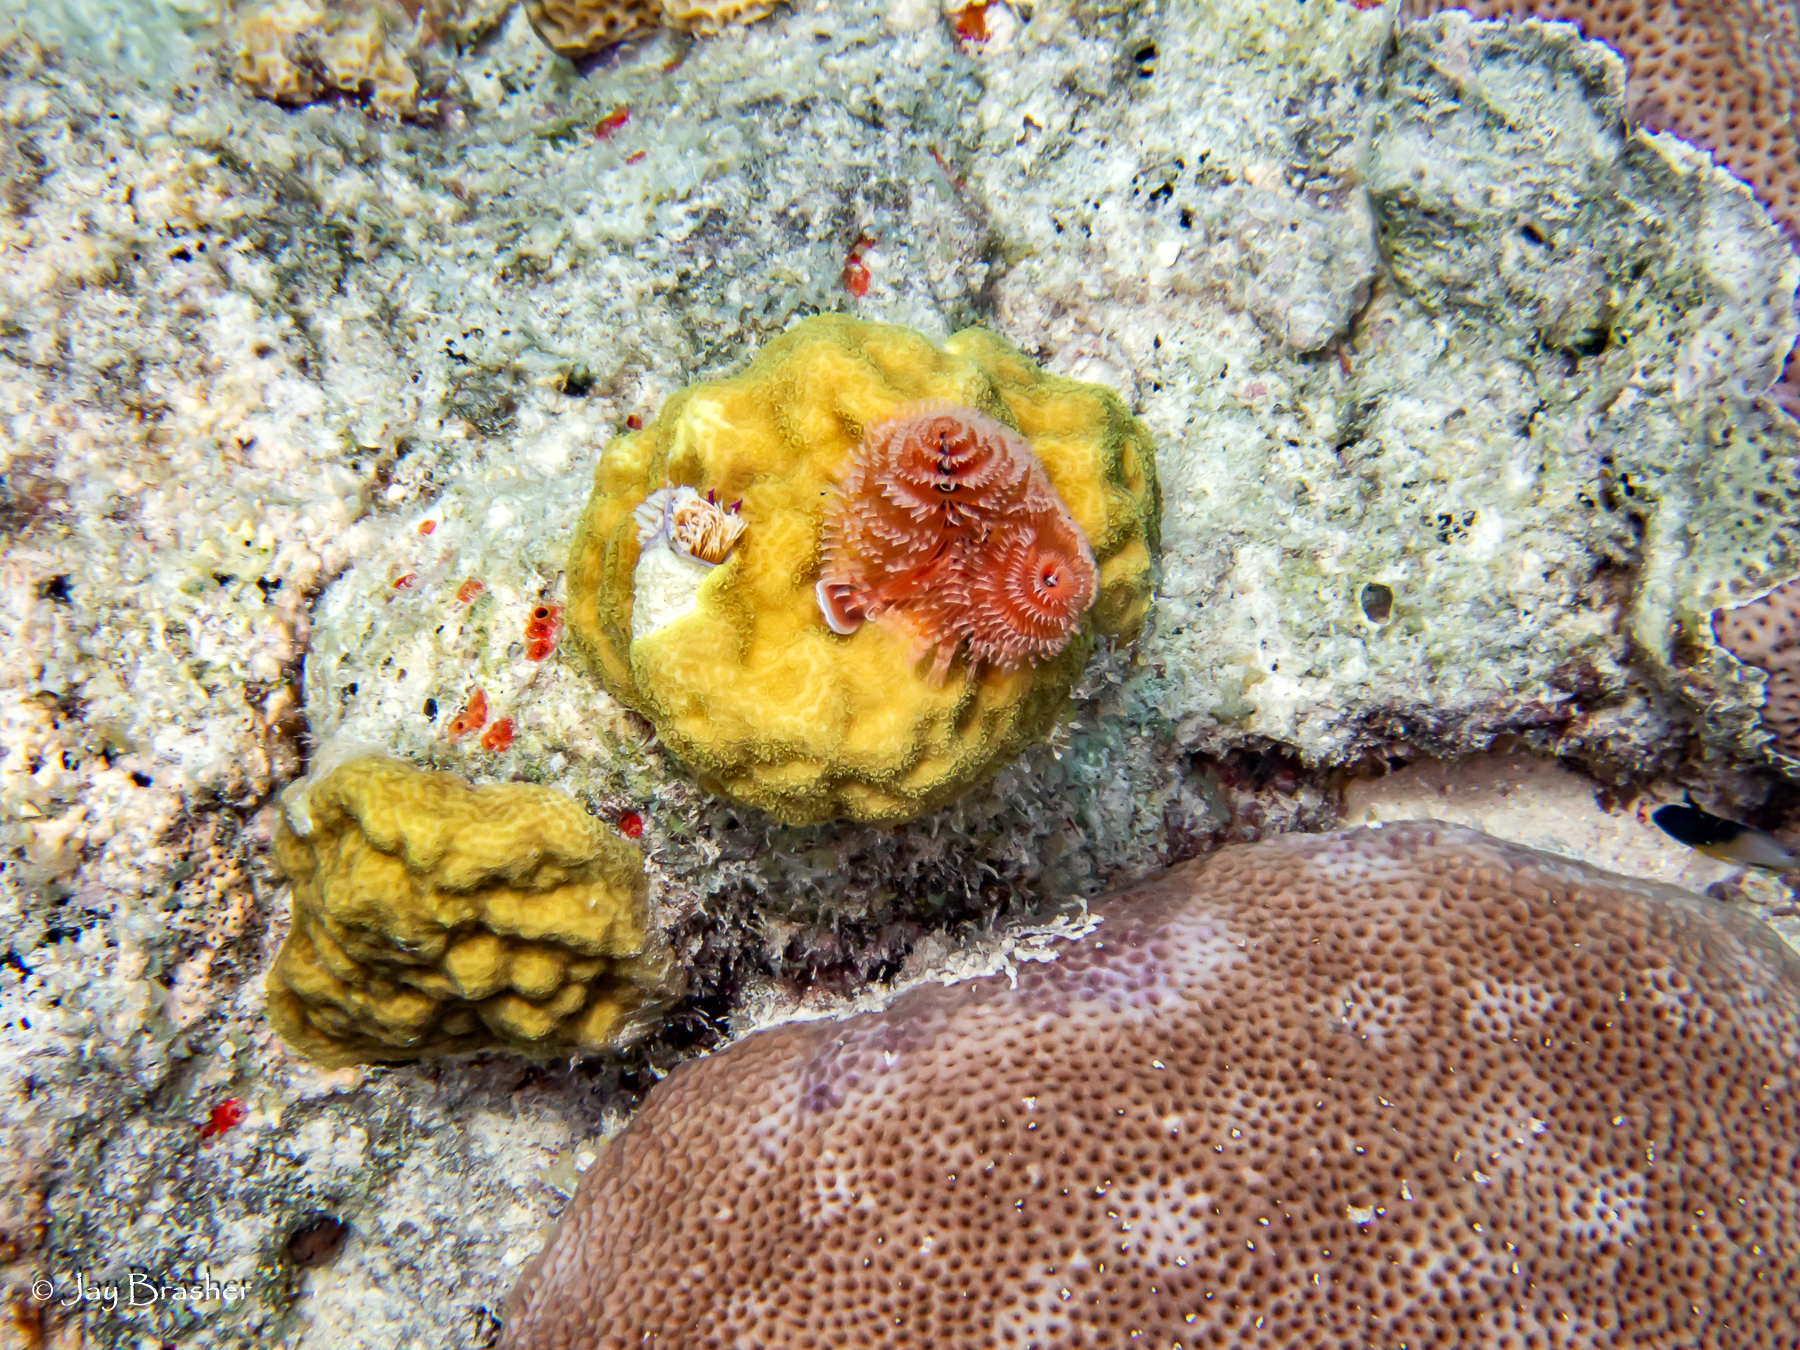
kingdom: Animalia
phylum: Annelida
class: Polychaeta
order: Sabellida
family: Serpulidae
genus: Spirobranchus
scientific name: Spirobranchus giganteus
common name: Christmas tree worm
